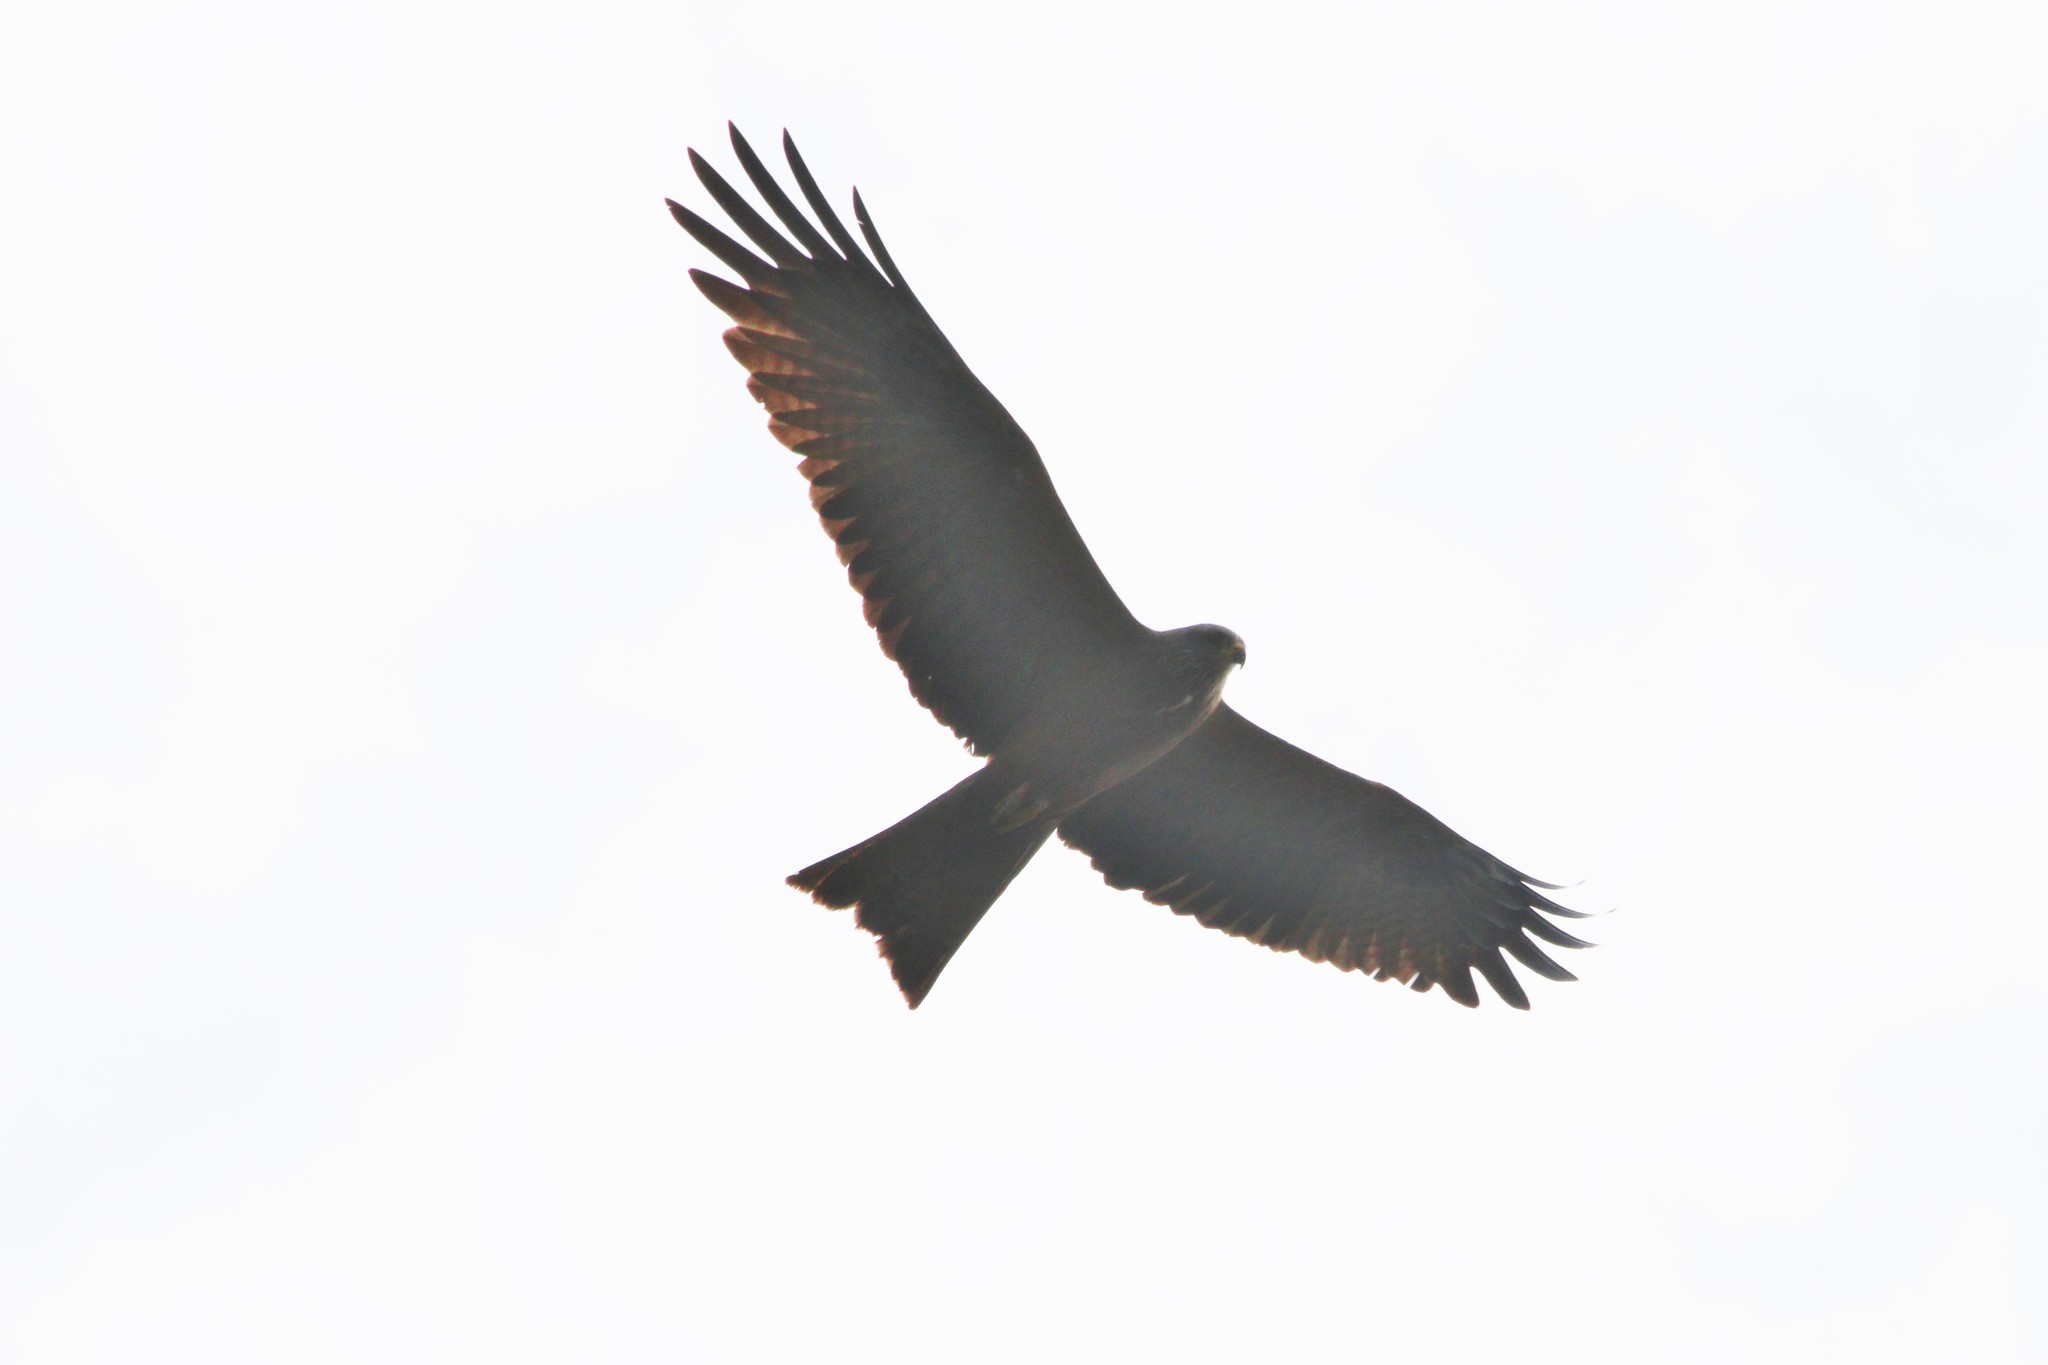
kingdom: Animalia
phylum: Chordata
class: Aves
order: Accipitriformes
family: Accipitridae
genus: Milvus
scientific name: Milvus migrans
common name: Black kite
